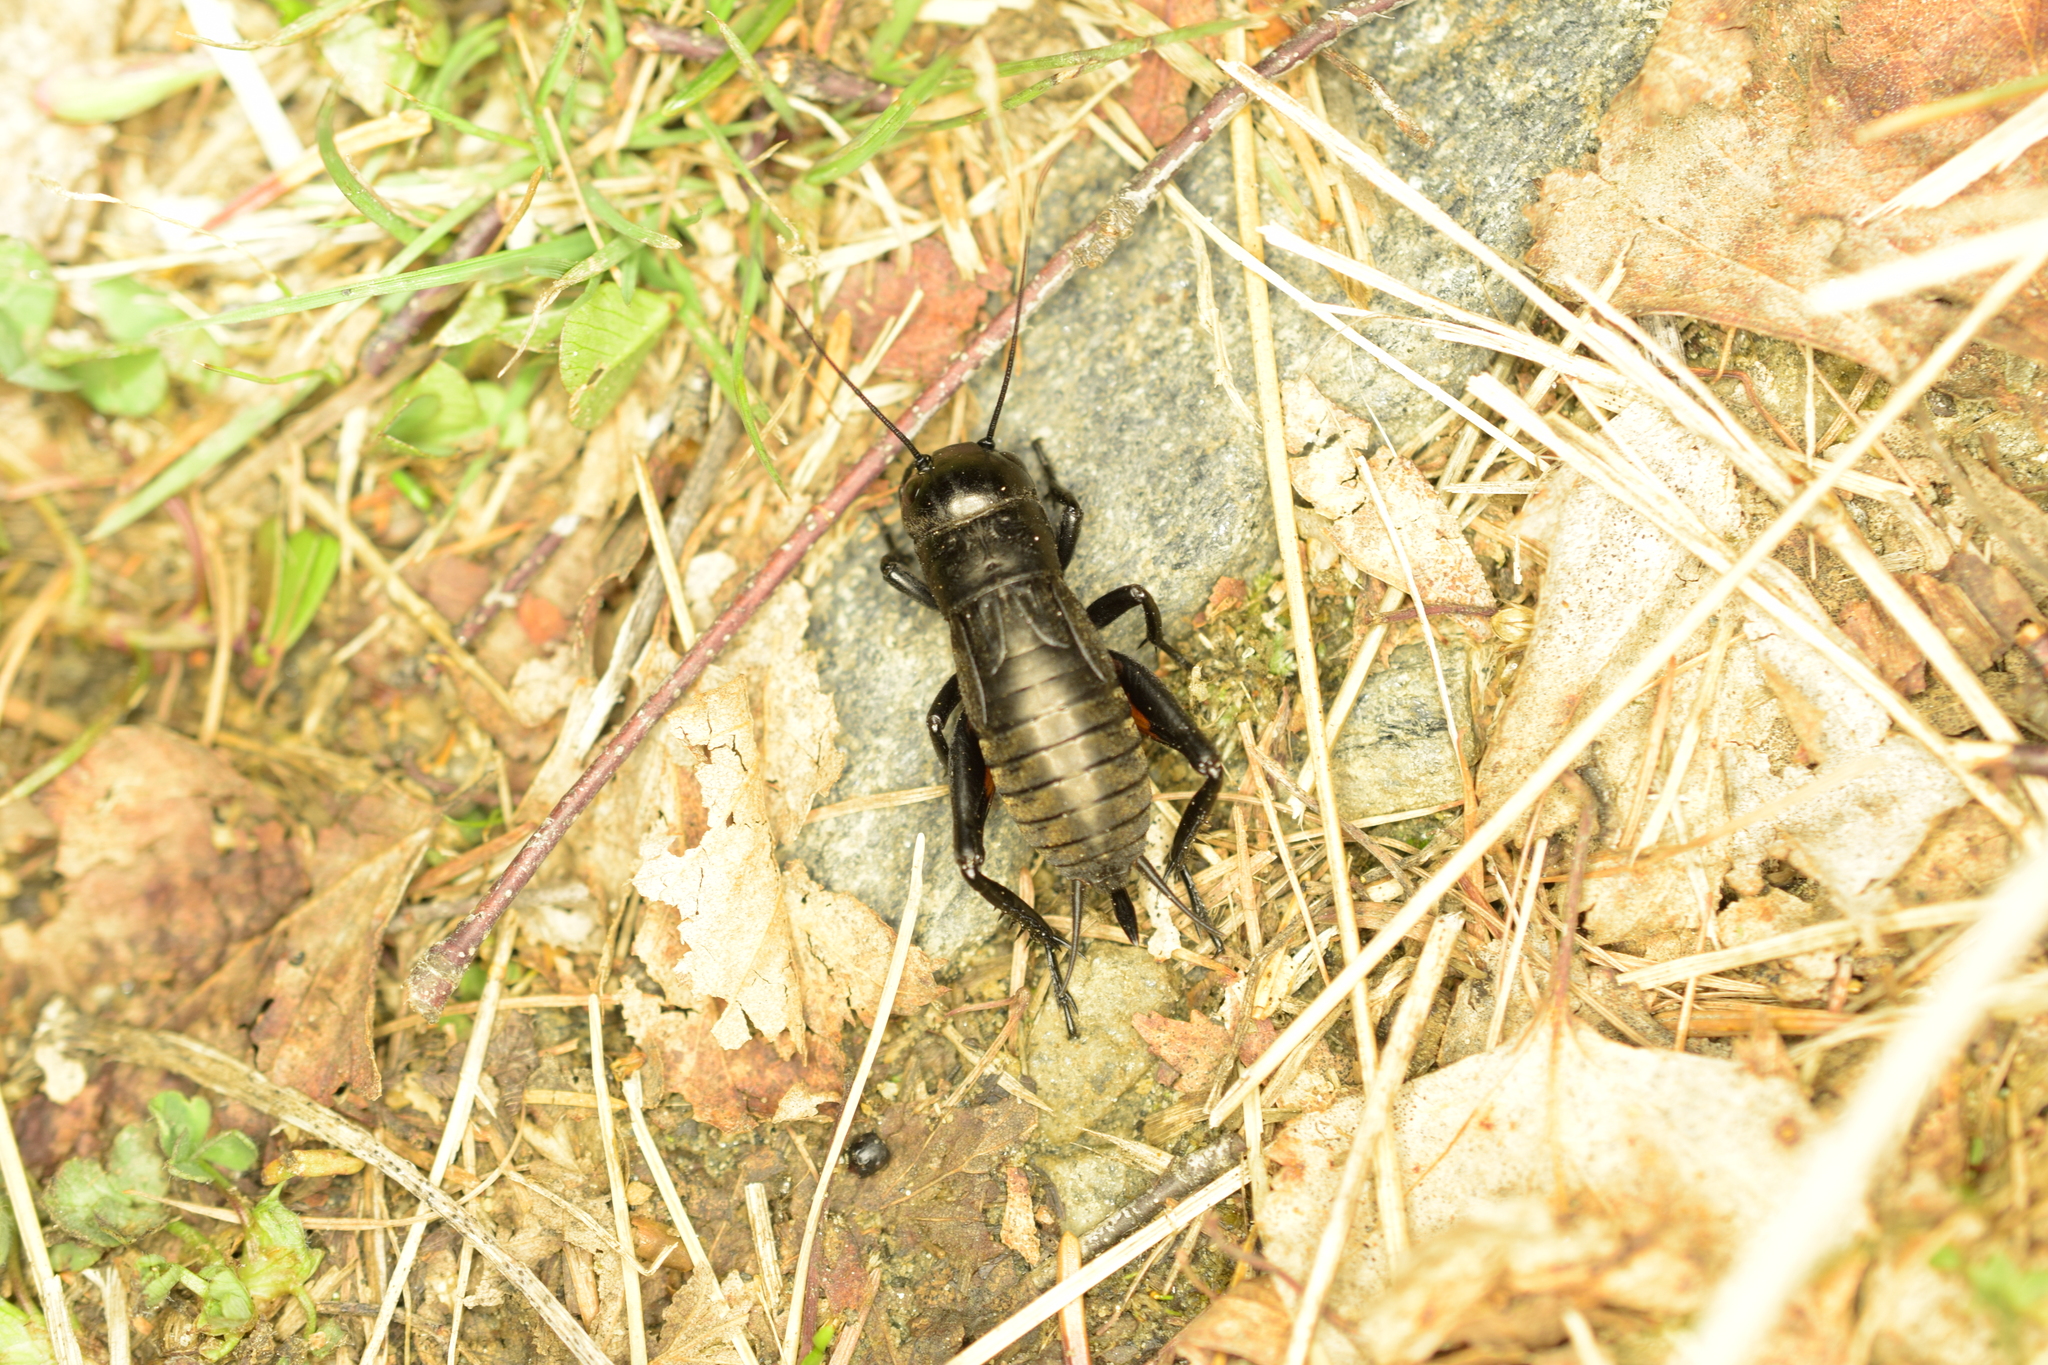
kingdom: Animalia
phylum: Arthropoda
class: Insecta
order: Orthoptera
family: Gryllidae
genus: Gryllus
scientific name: Gryllus campestris
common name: Field cricket
